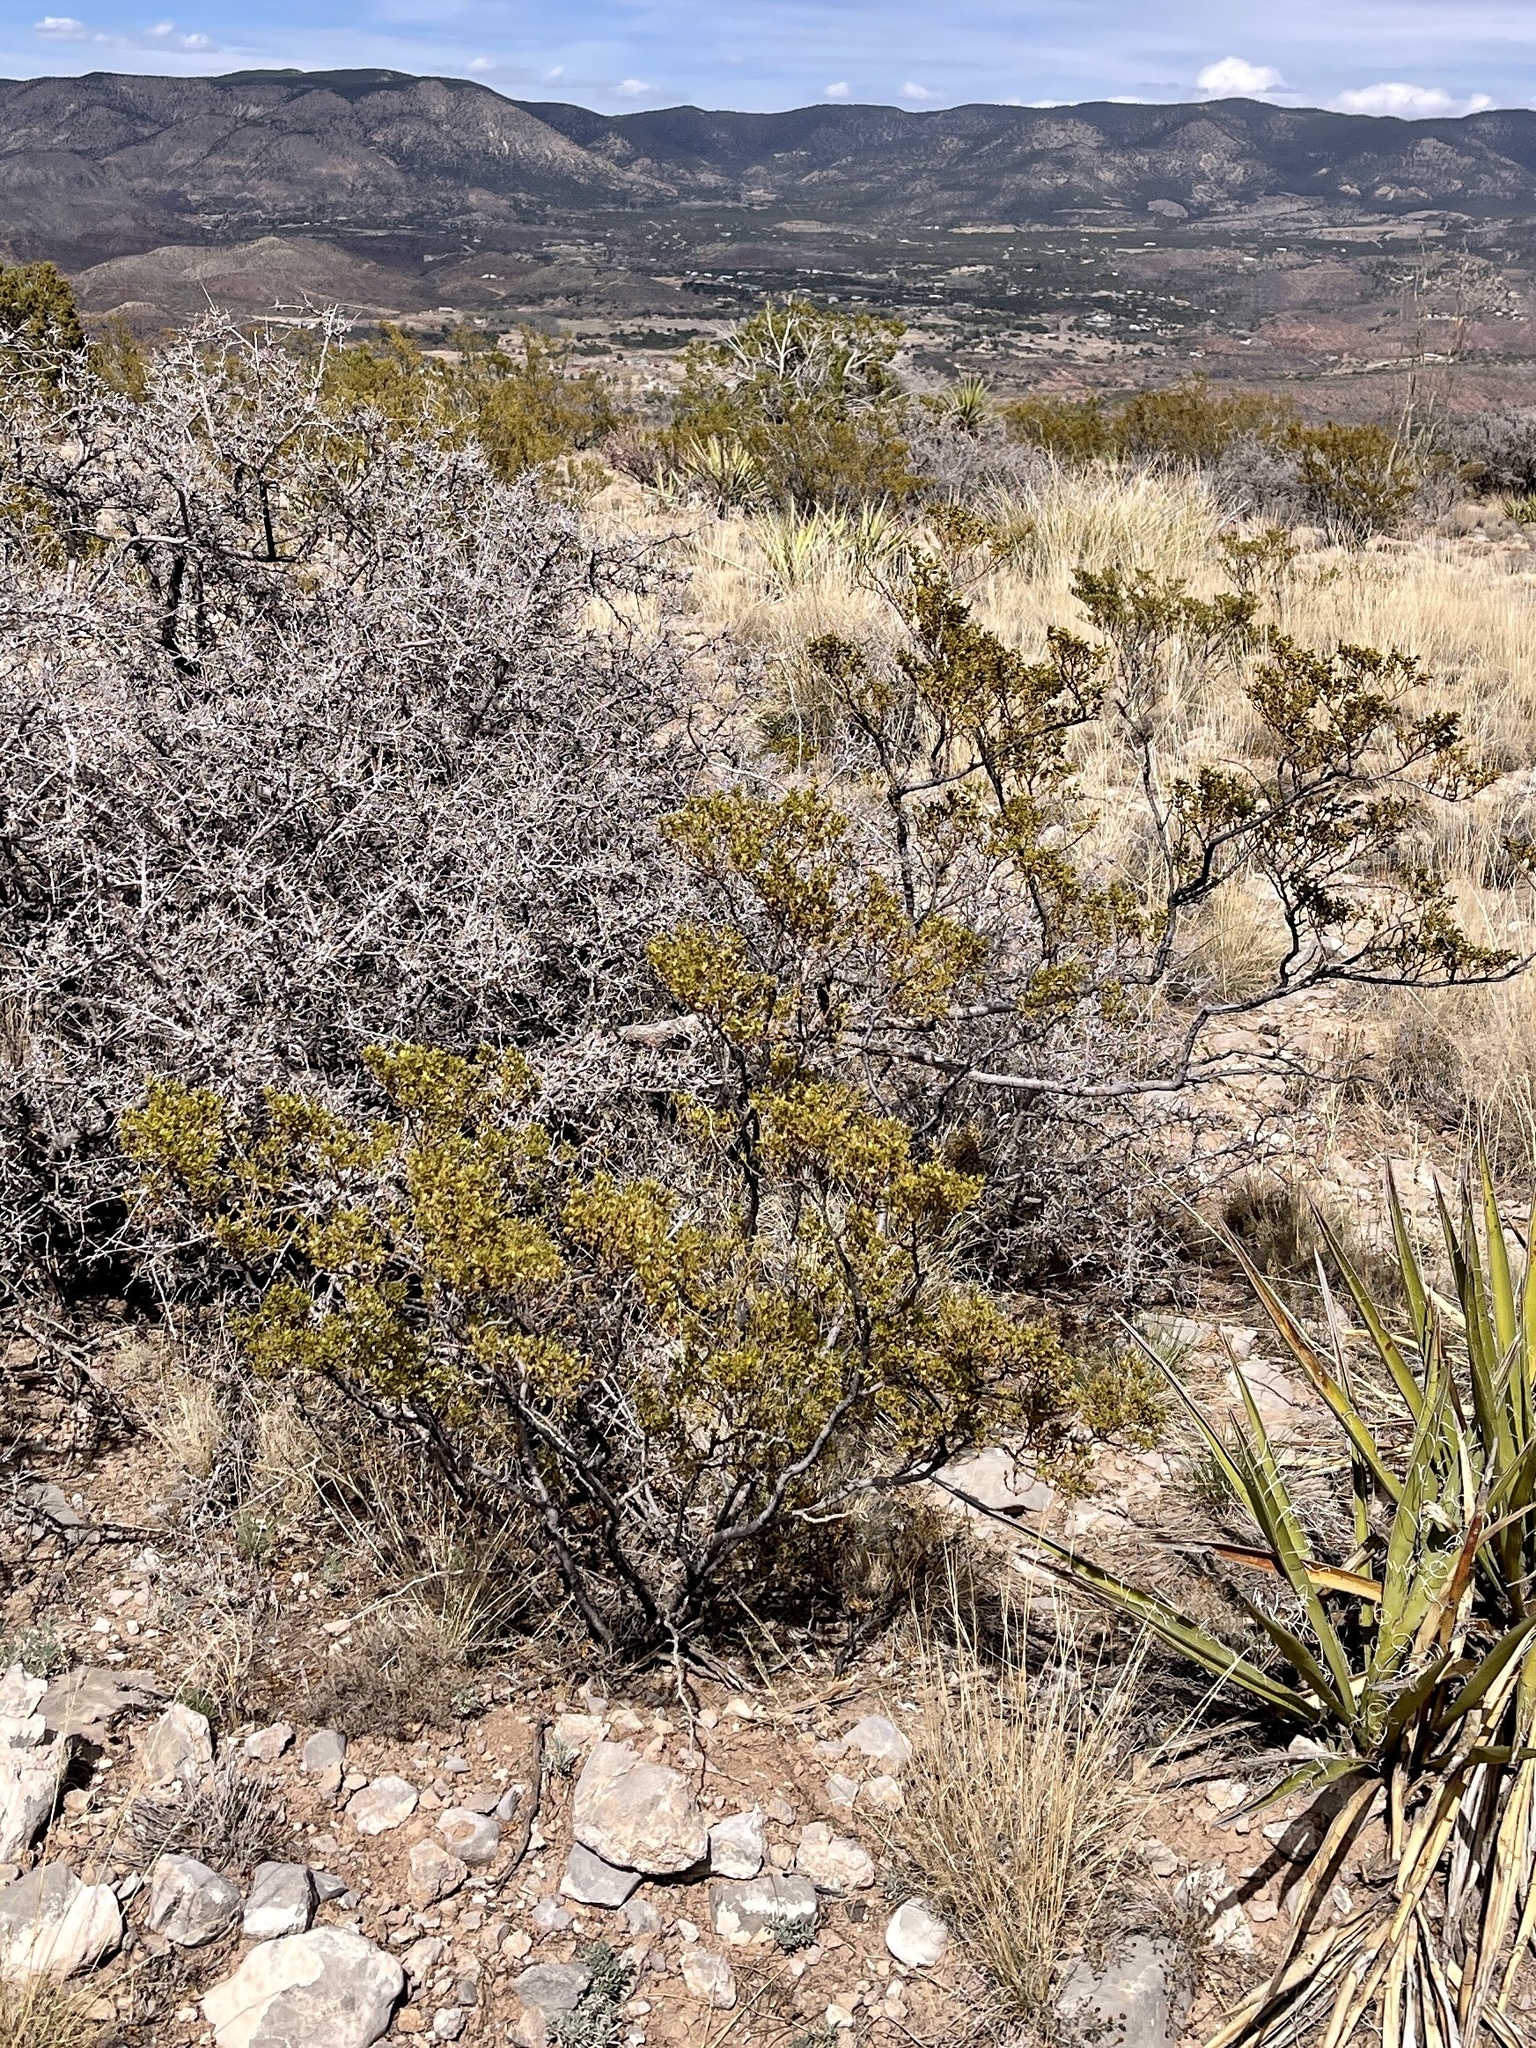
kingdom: Plantae
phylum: Tracheophyta
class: Magnoliopsida
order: Zygophyllales
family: Zygophyllaceae
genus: Larrea
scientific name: Larrea tridentata
